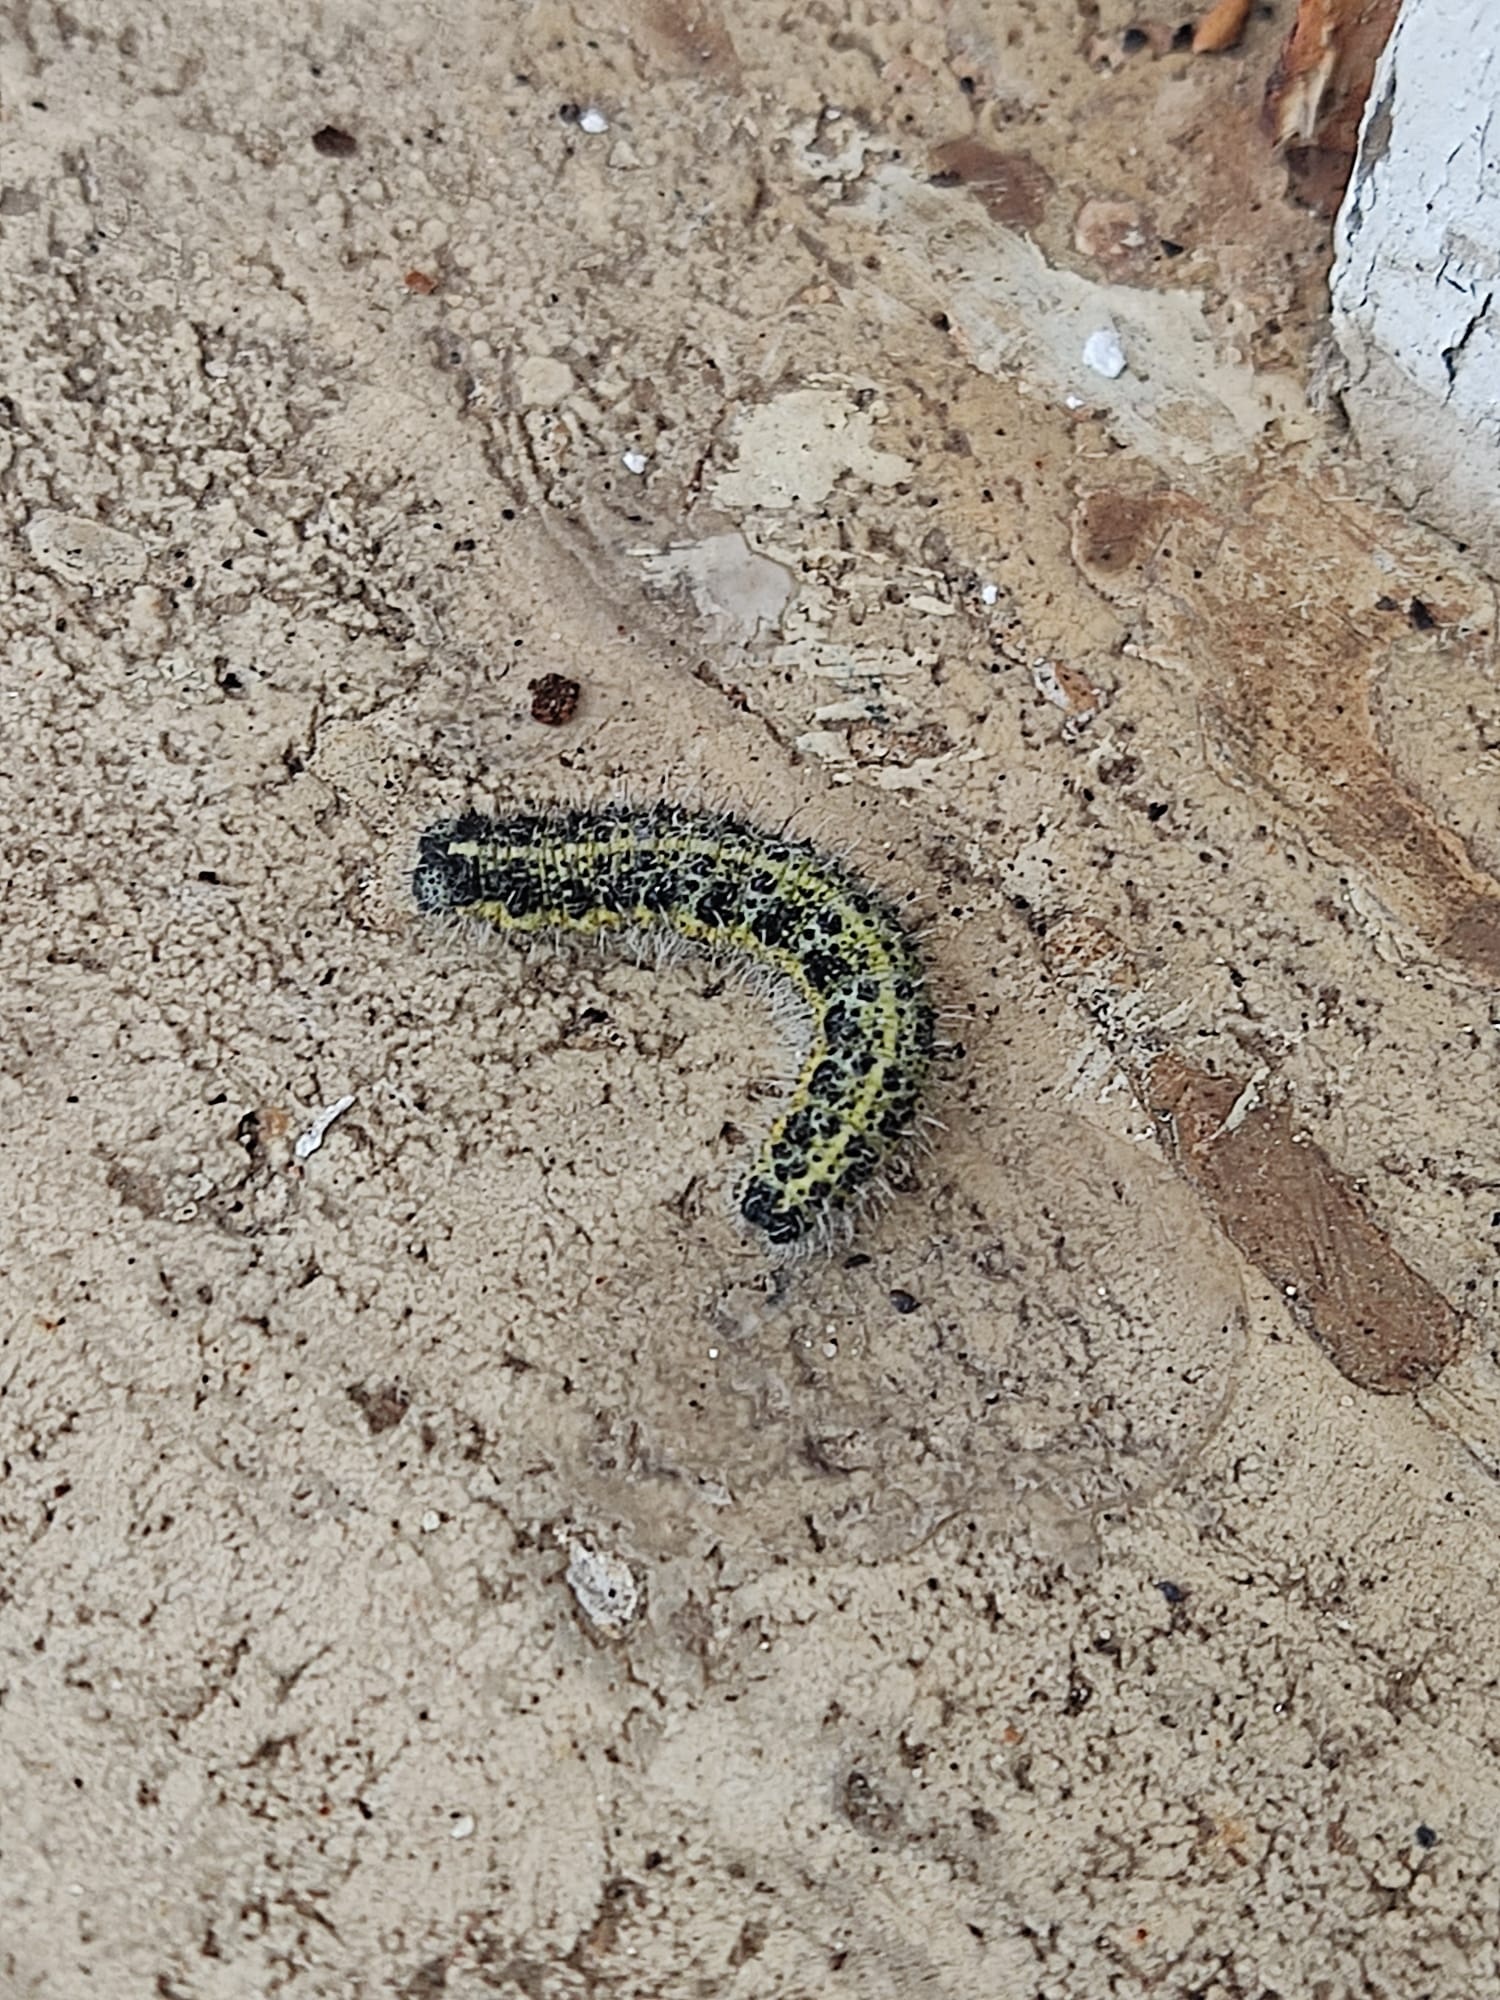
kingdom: Animalia
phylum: Arthropoda
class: Insecta
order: Lepidoptera
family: Pieridae
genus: Pieris
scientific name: Pieris brassicae
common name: Large white
